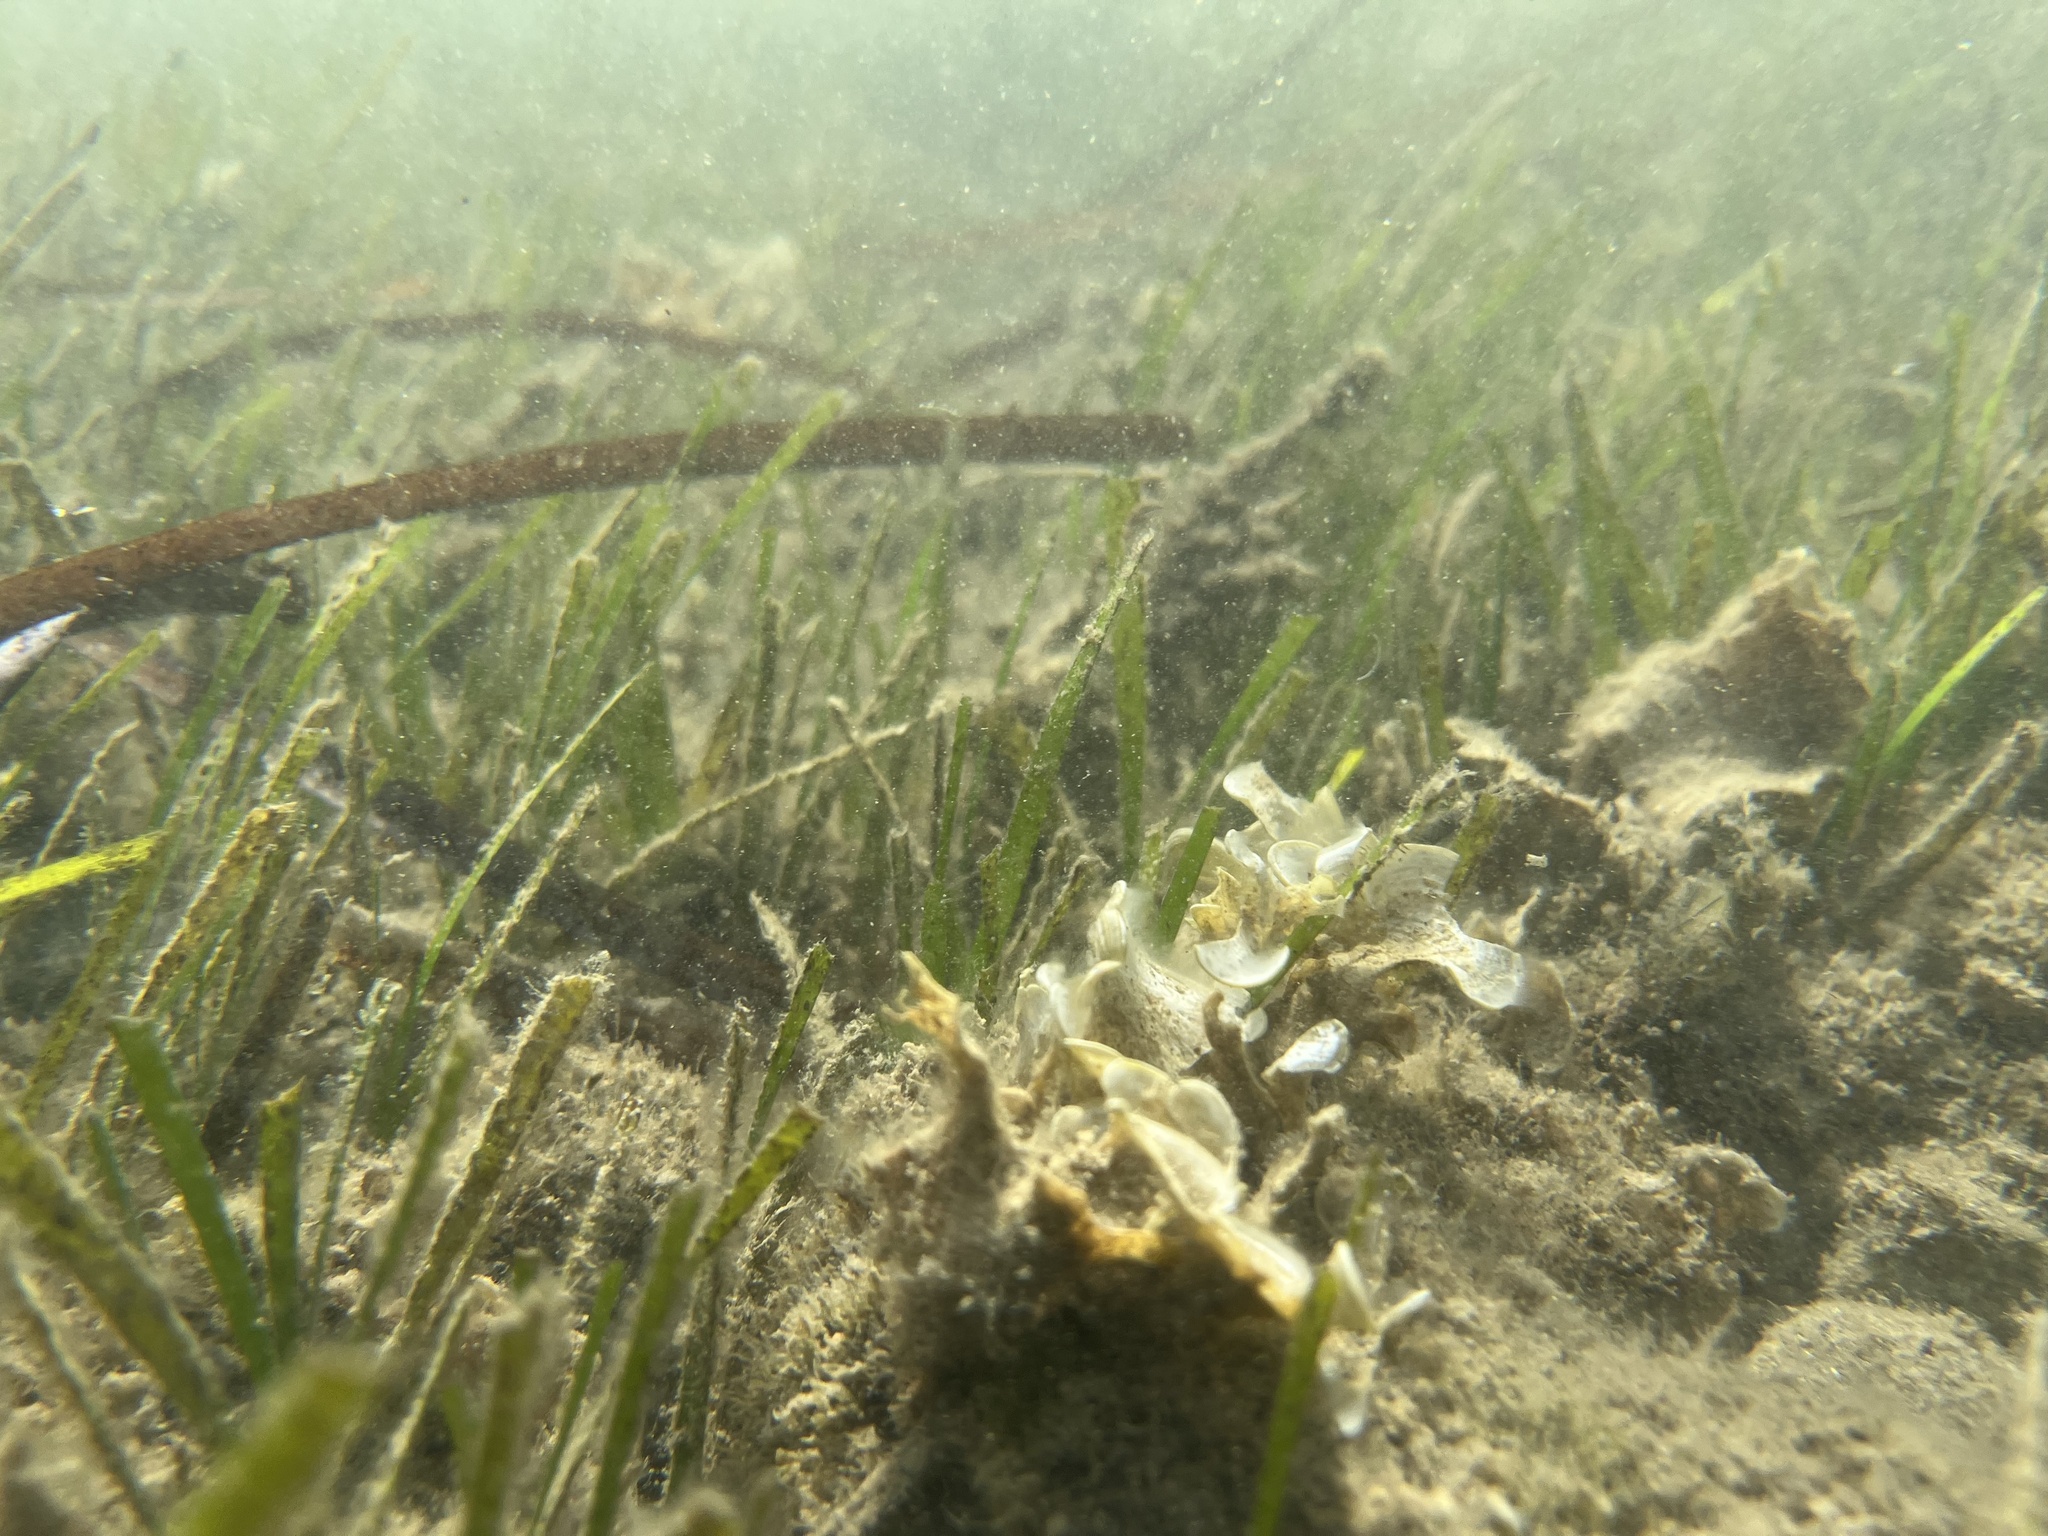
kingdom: Chromista
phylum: Ochrophyta
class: Phaeophyceae
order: Dictyotales
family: Dictyotaceae
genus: Padina
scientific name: Padina
